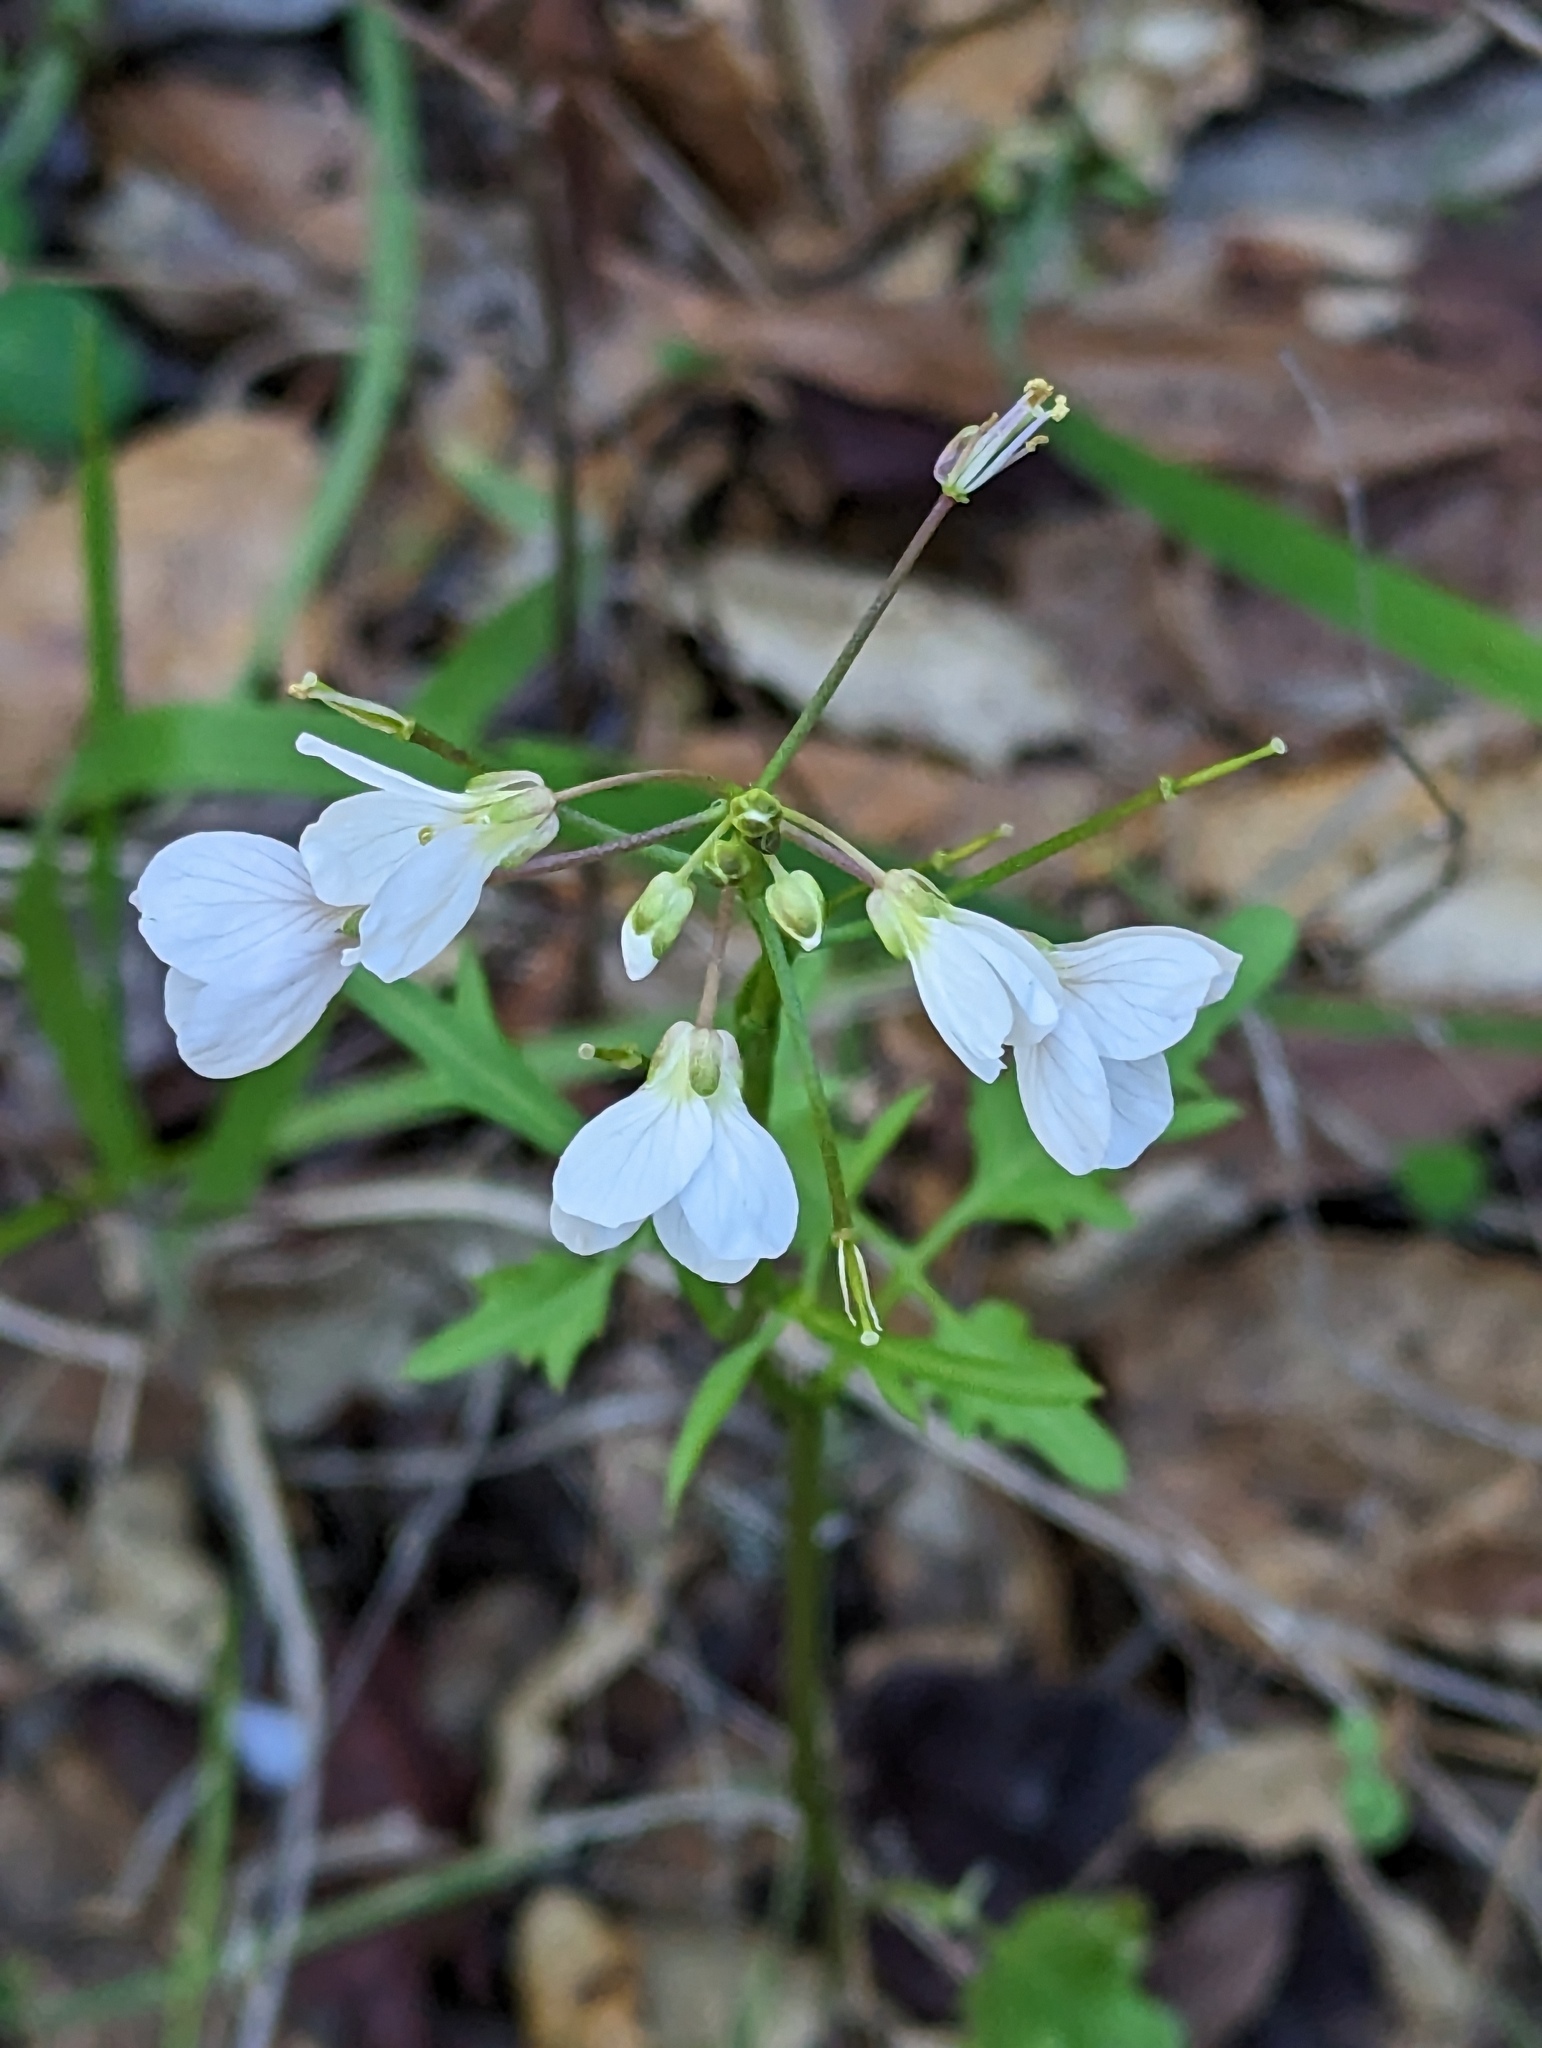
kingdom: Plantae
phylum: Tracheophyta
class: Magnoliopsida
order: Brassicales
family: Brassicaceae
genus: Cardamine
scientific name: Cardamine californica
